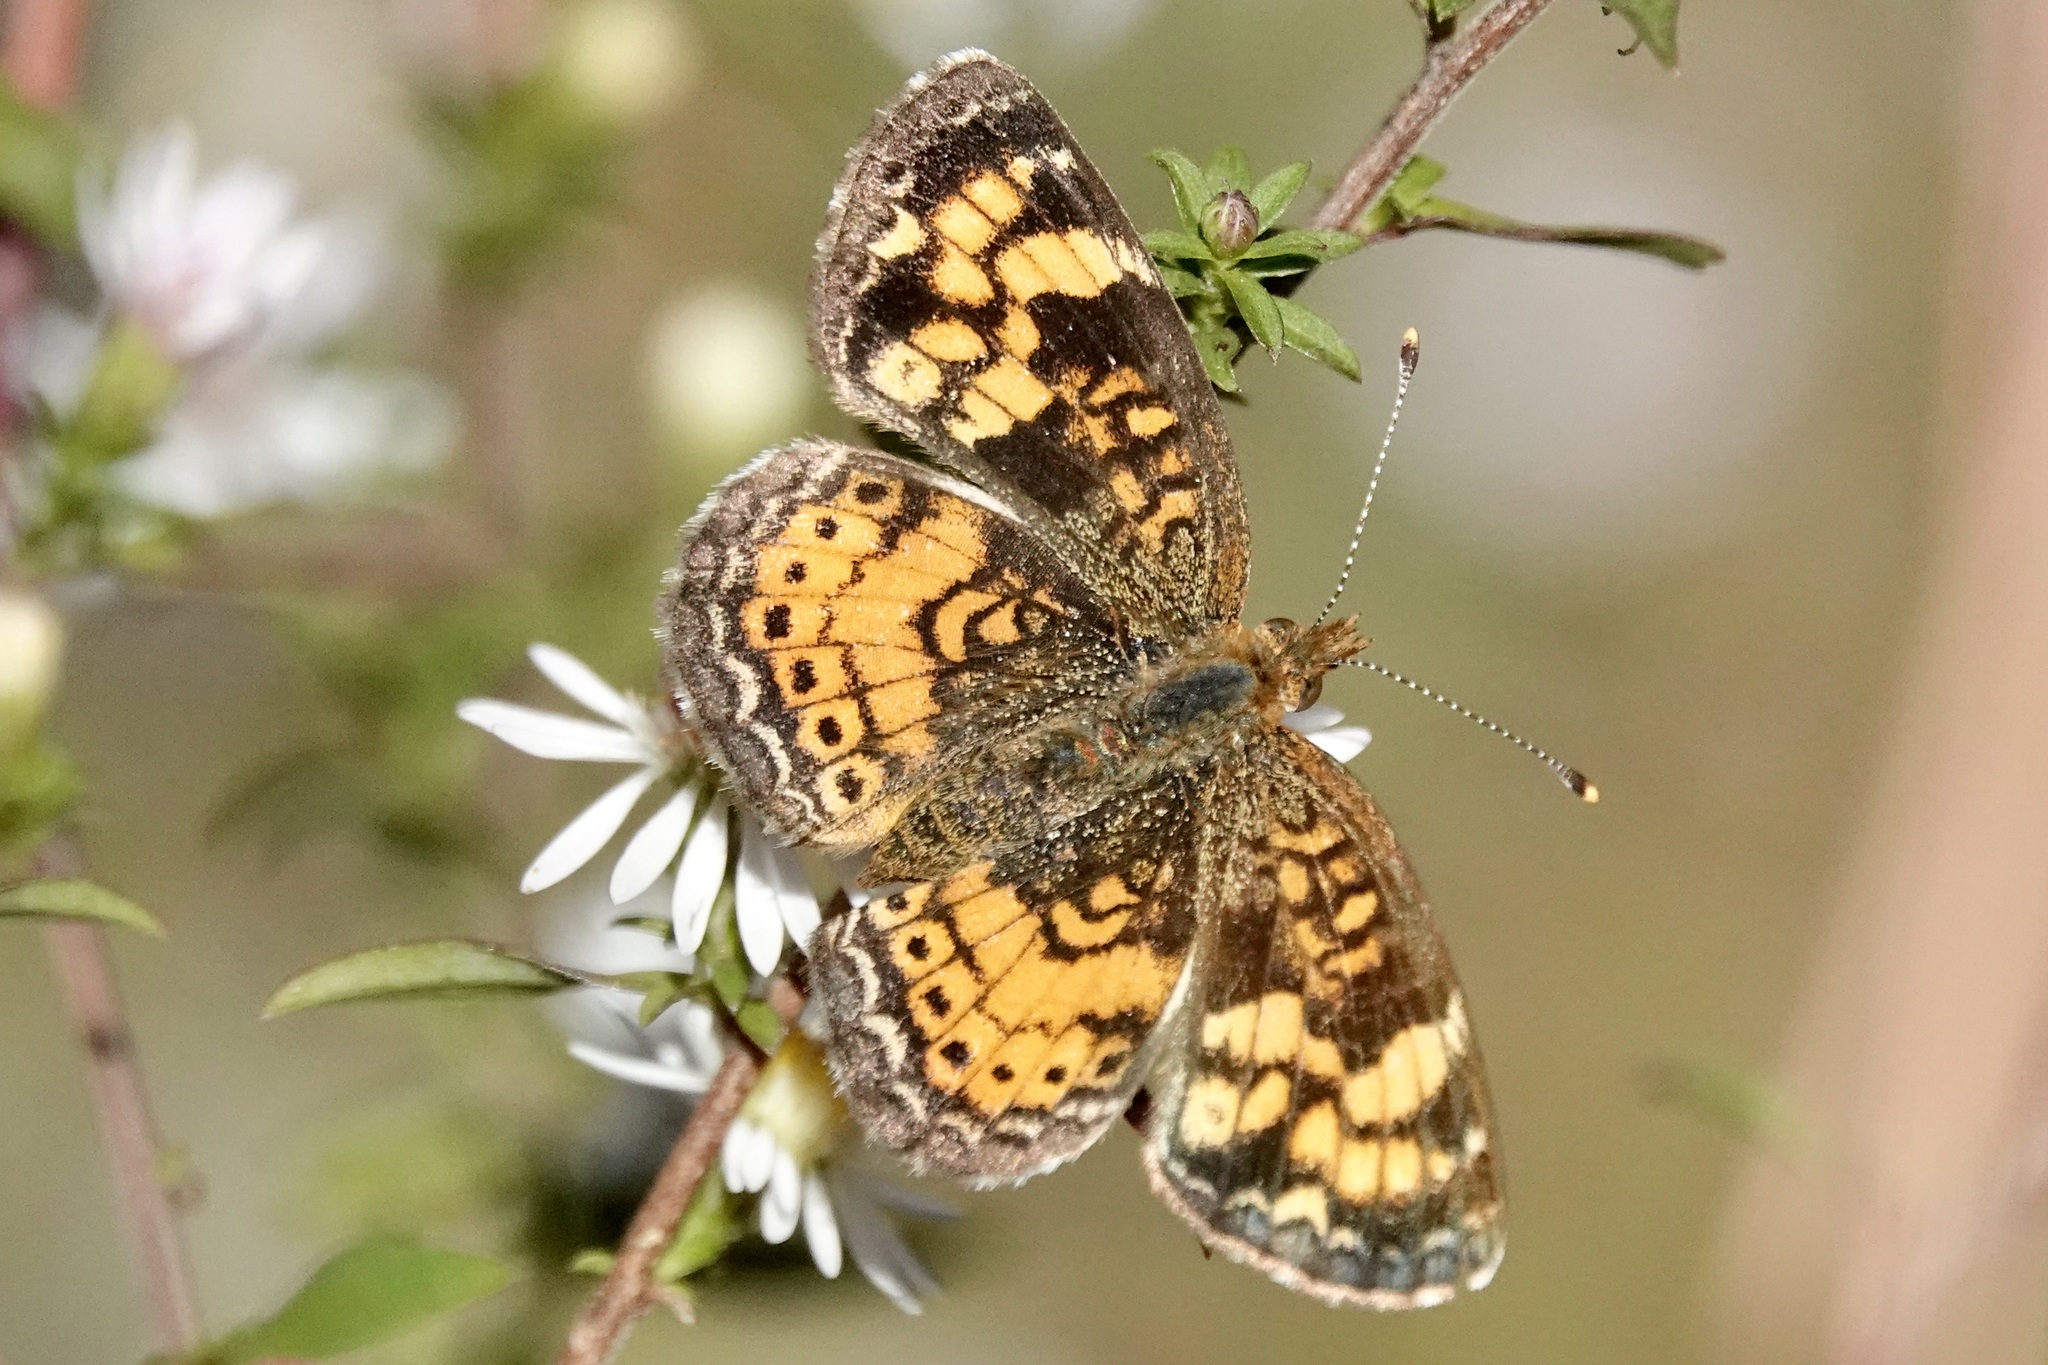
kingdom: Animalia
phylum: Arthropoda
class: Insecta
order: Lepidoptera
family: Nymphalidae
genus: Phyciodes
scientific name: Phyciodes tharos
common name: Pearl crescent
